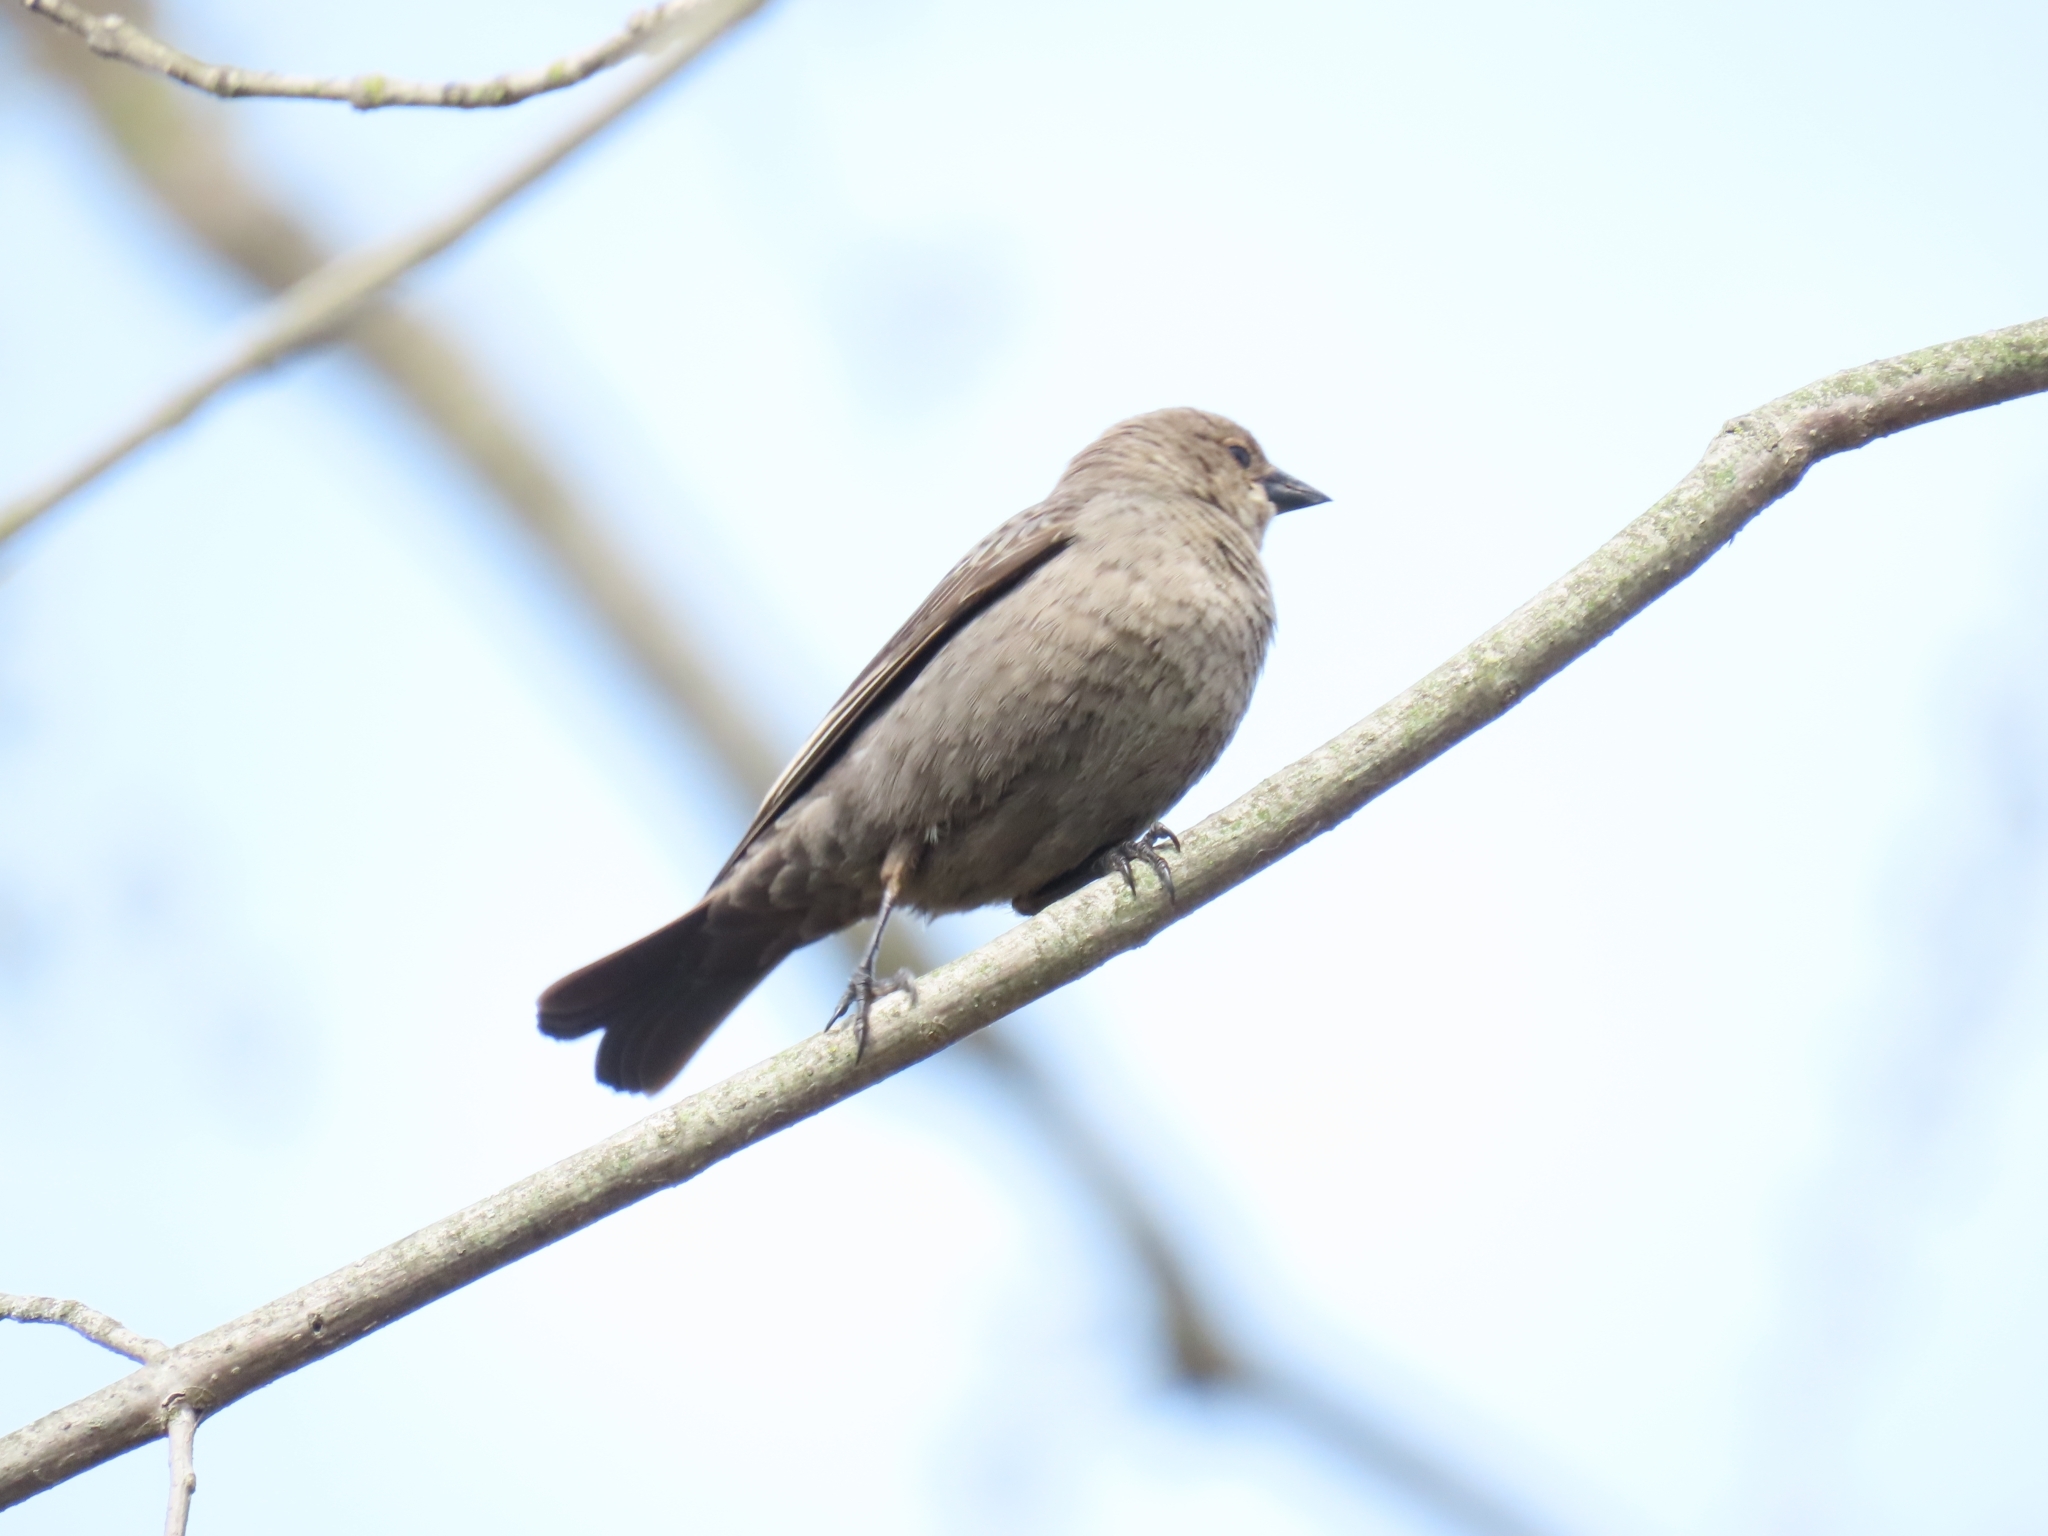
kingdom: Animalia
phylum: Chordata
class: Aves
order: Passeriformes
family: Icteridae
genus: Molothrus
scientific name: Molothrus ater
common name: Brown-headed cowbird
